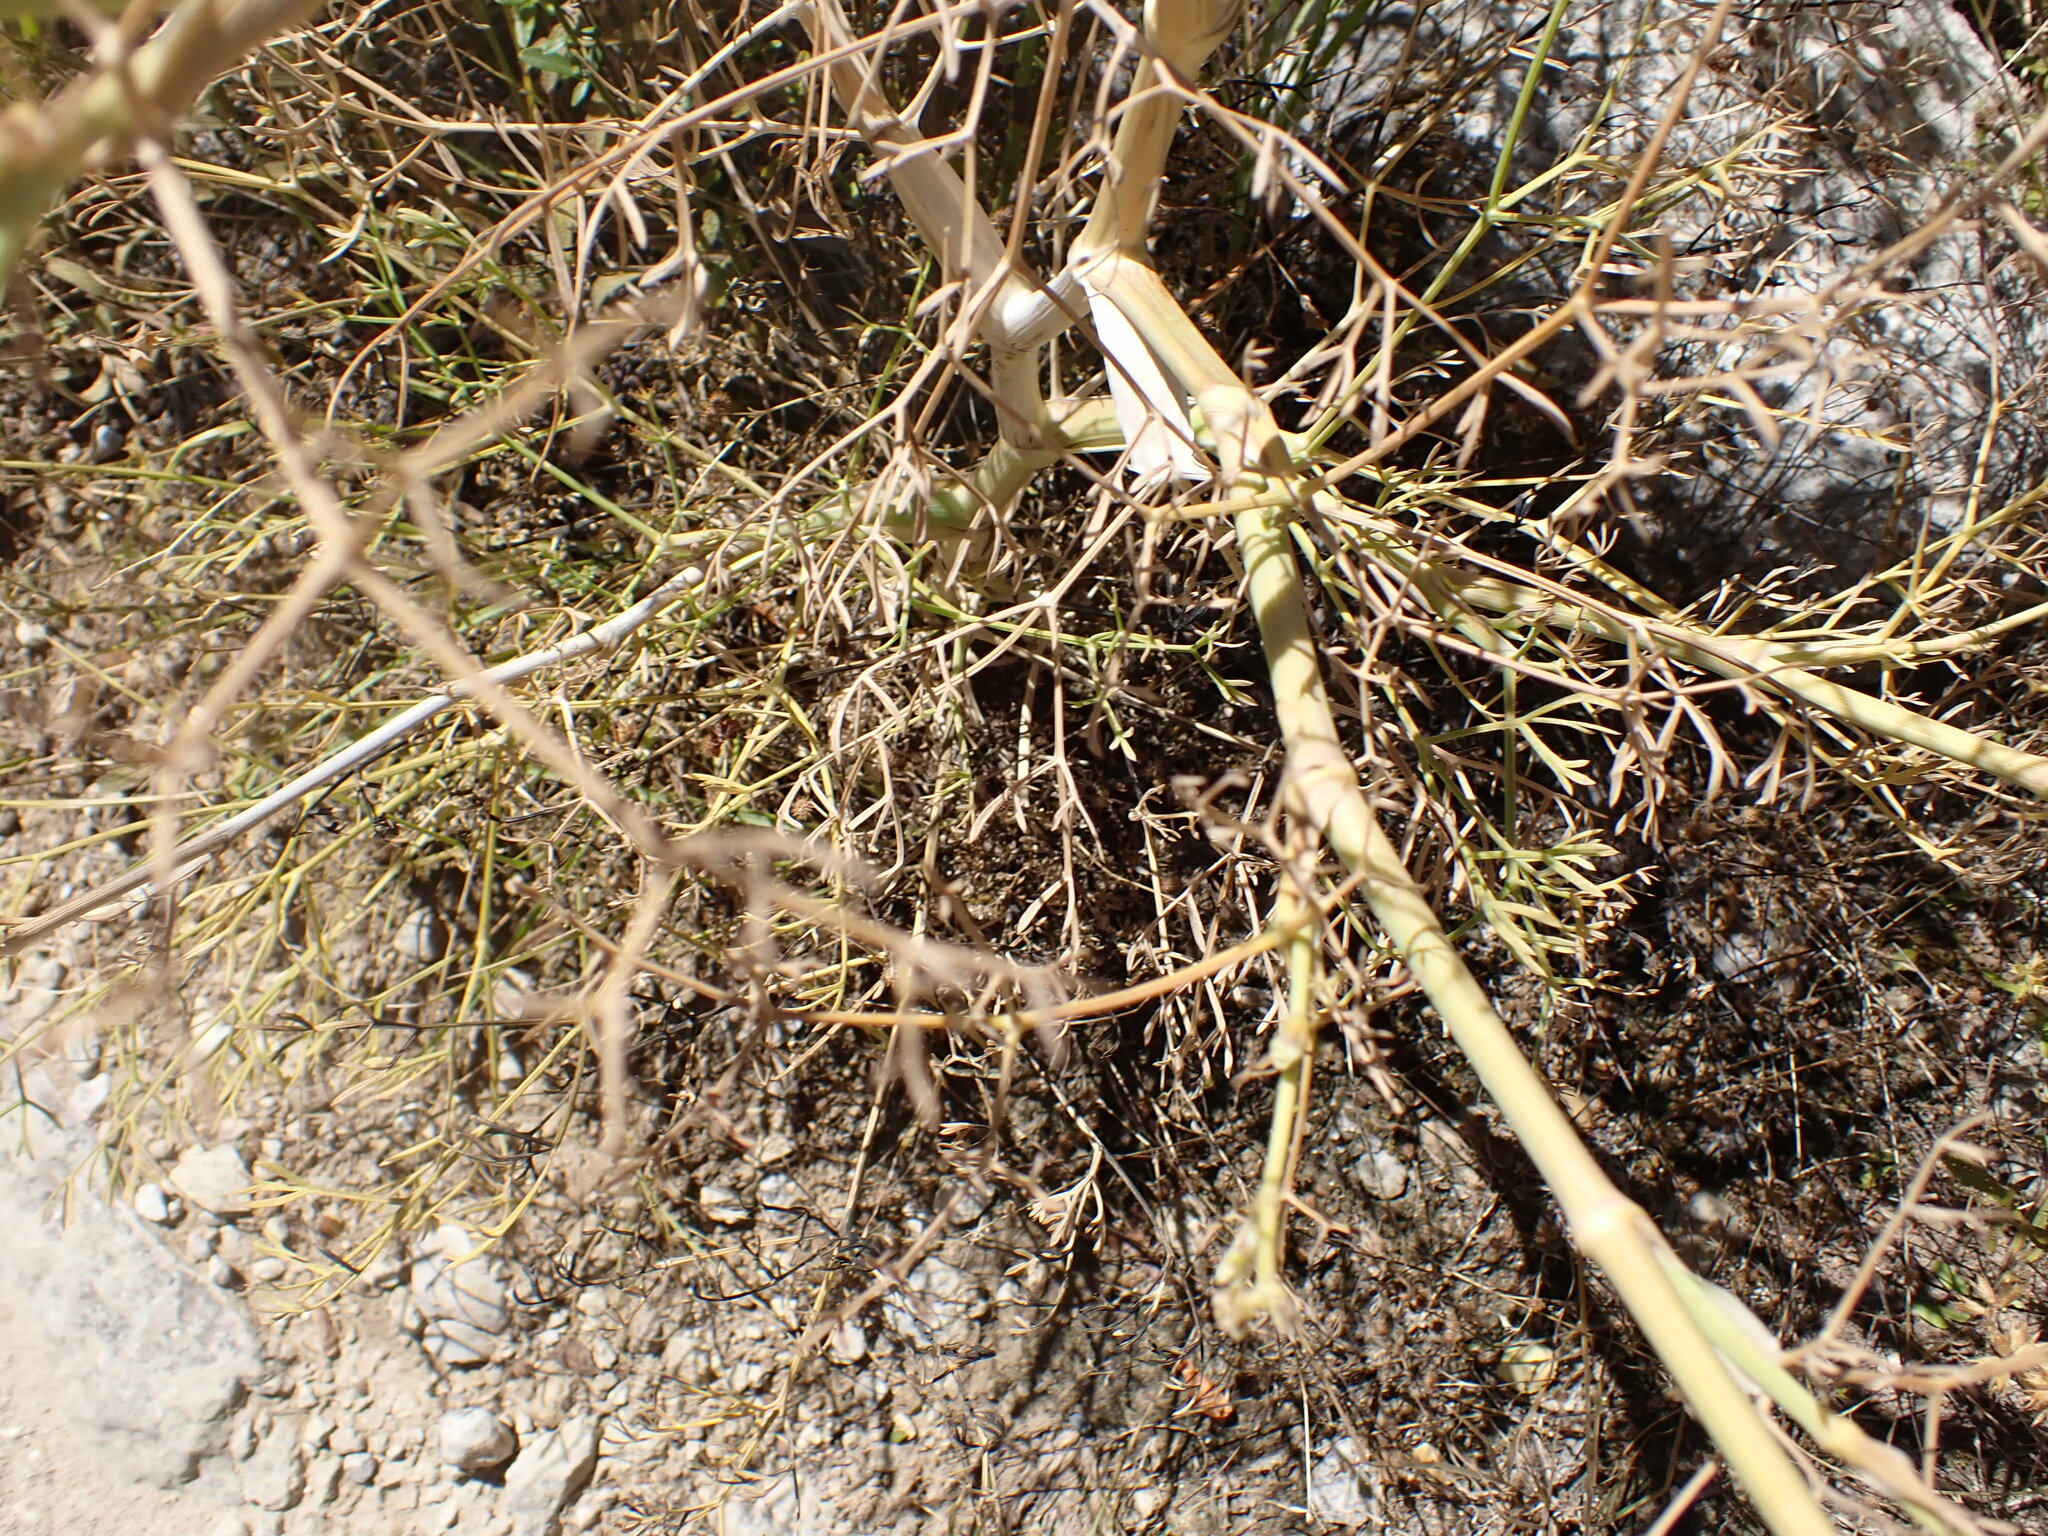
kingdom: Plantae
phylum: Tracheophyta
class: Magnoliopsida
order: Apiales
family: Apiaceae
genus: Foeniculum
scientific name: Foeniculum vulgare
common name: Fennel
